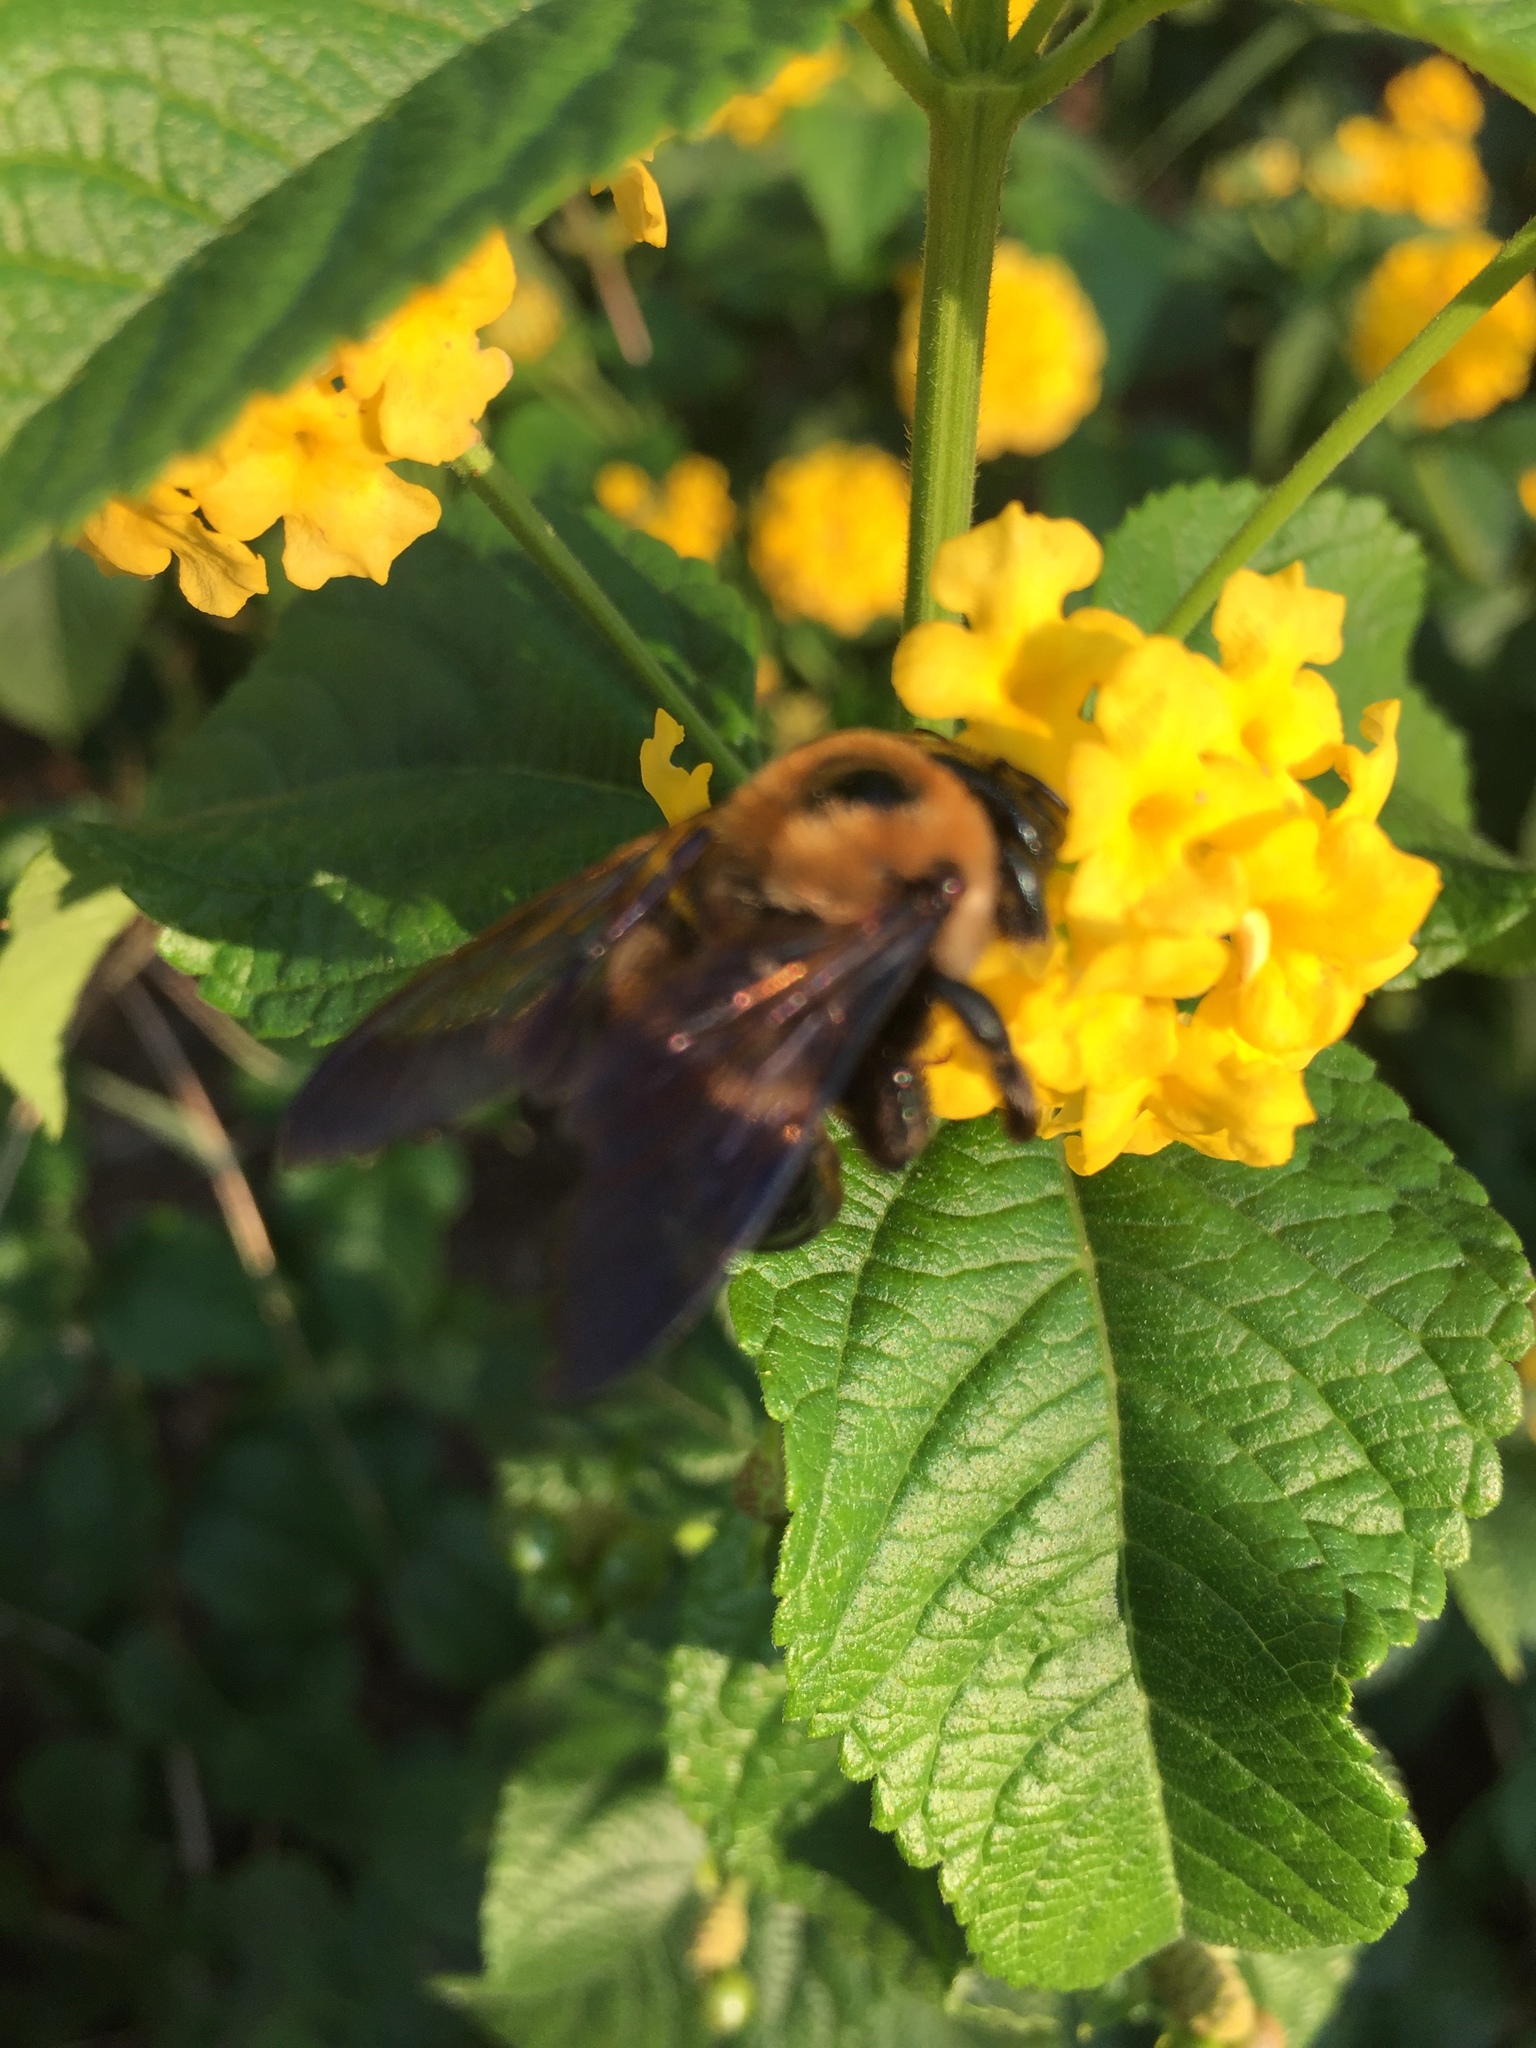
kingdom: Animalia
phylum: Arthropoda
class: Insecta
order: Hymenoptera
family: Apidae
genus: Xylocopa
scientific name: Xylocopa virginica
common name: Carpenter bee
